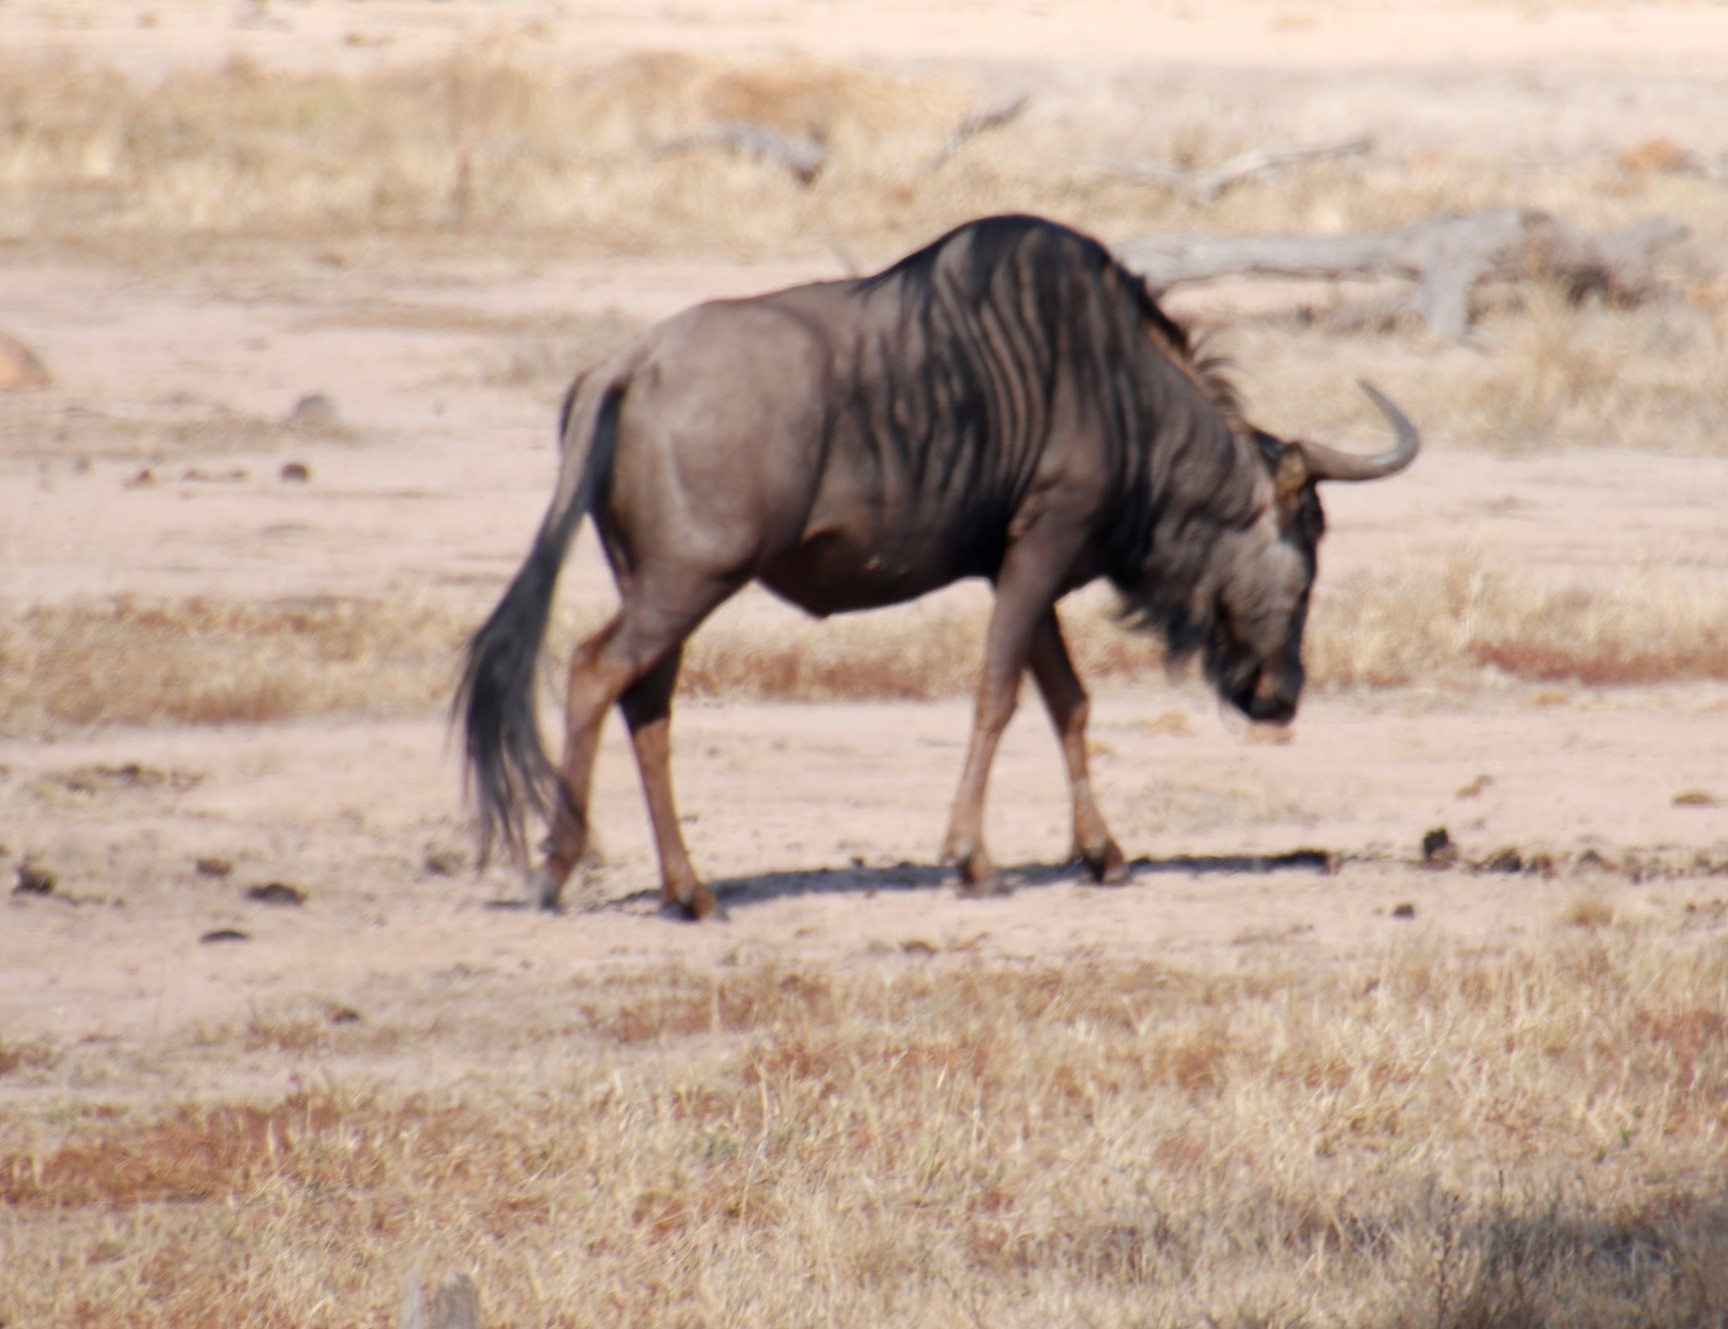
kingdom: Animalia
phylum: Chordata
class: Mammalia
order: Artiodactyla
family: Bovidae
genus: Connochaetes
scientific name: Connochaetes taurinus
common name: Blue wildebeest
